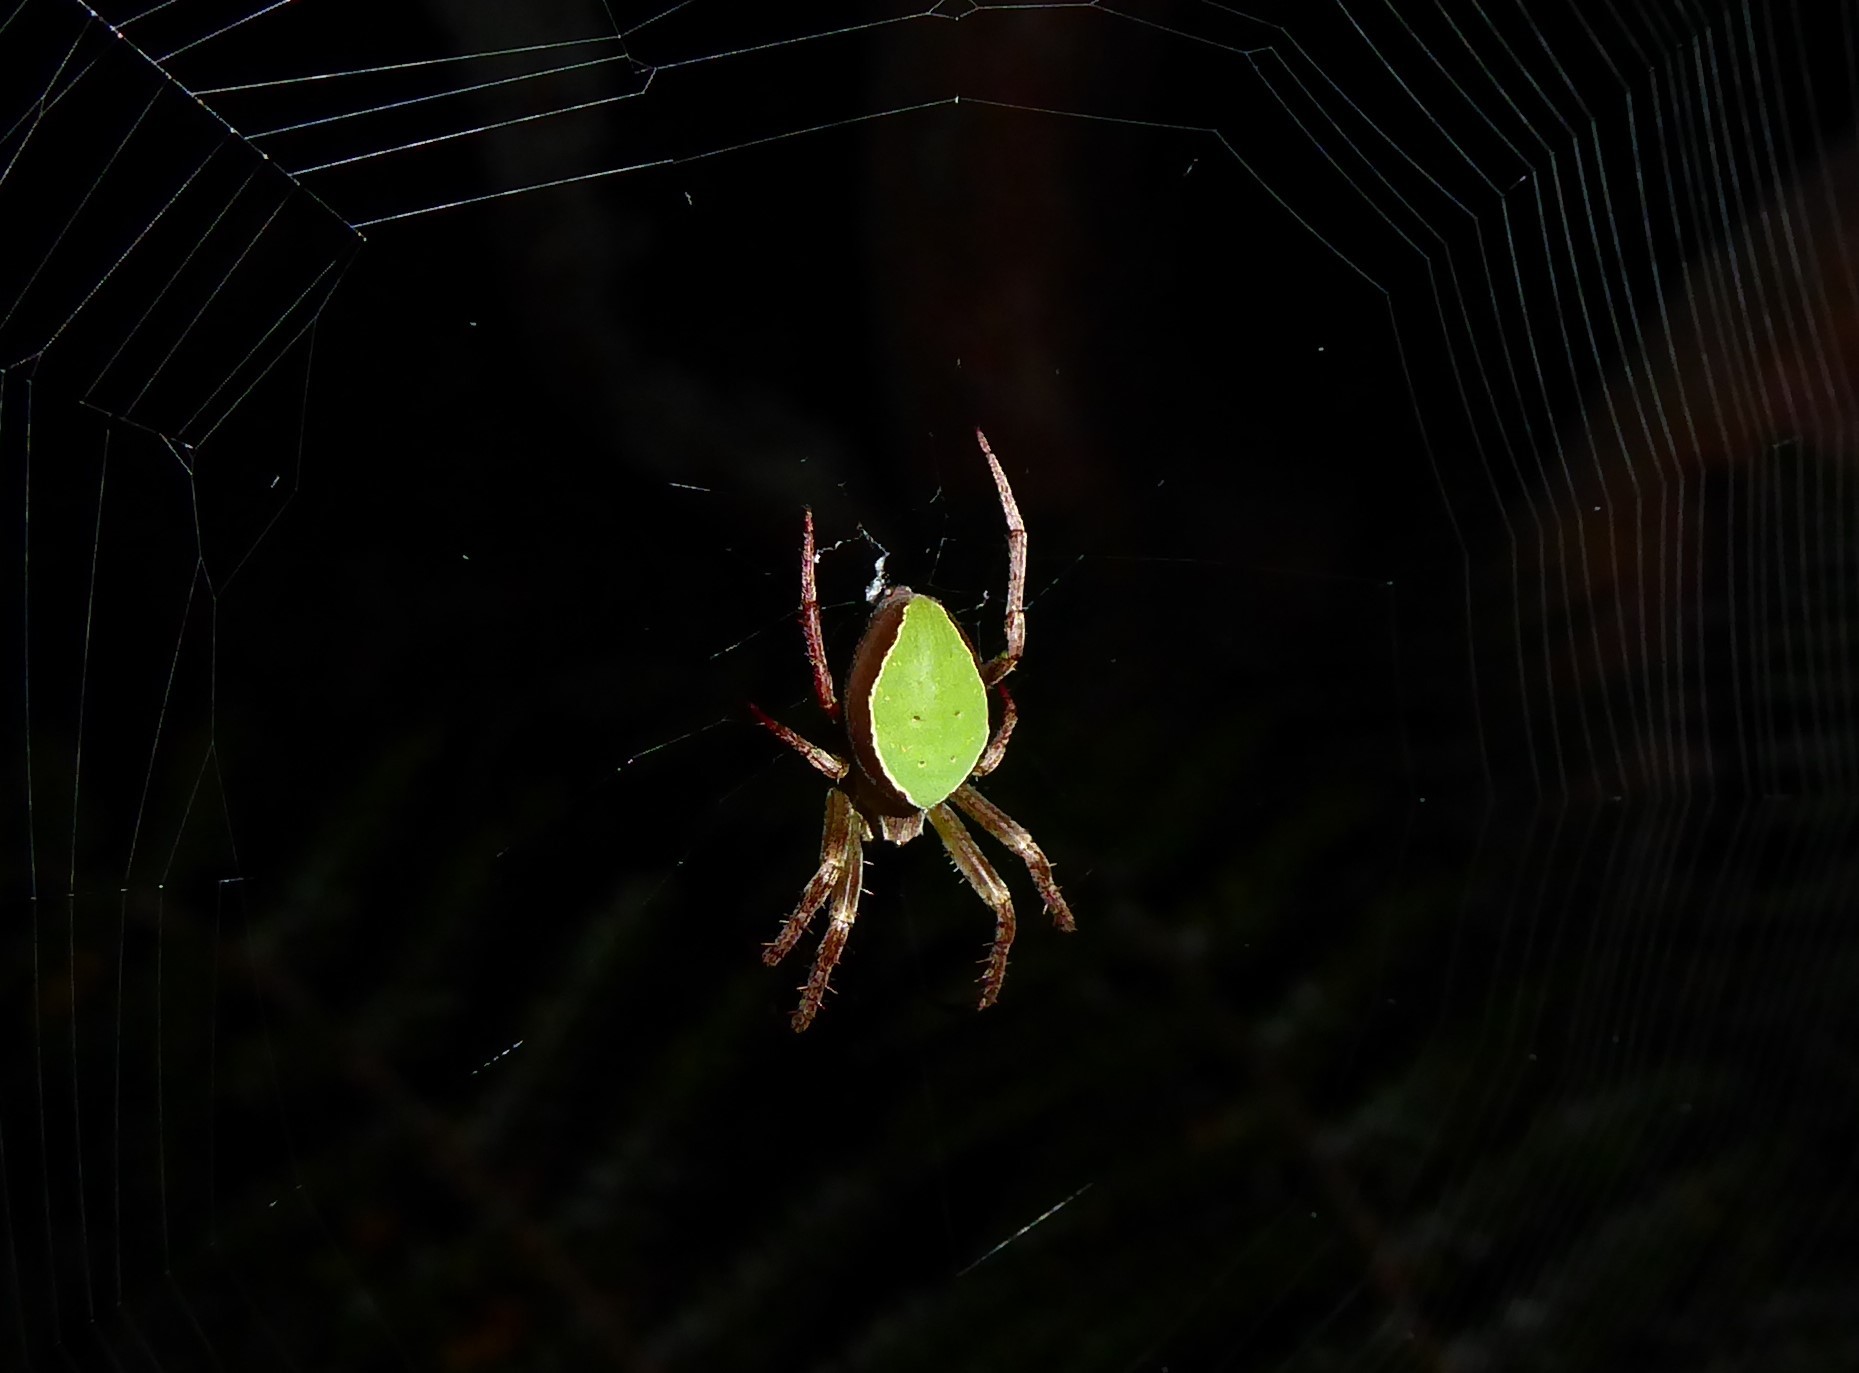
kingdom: Animalia
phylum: Arthropoda
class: Arachnida
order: Araneae
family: Araneidae
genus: Colaranea
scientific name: Colaranea viriditas
